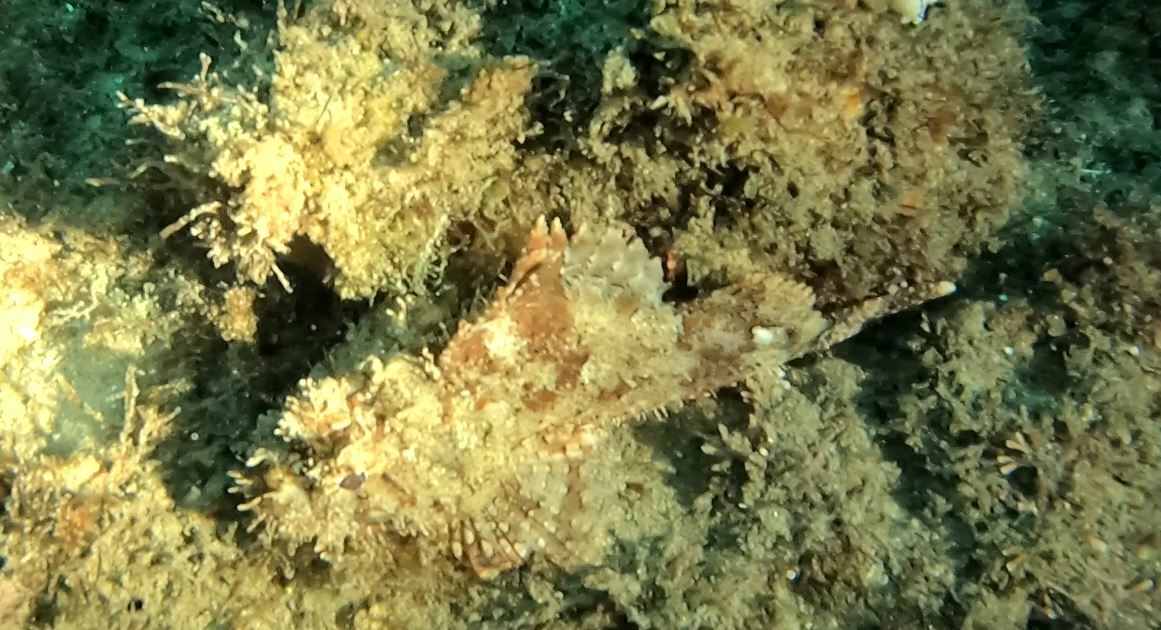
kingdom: Animalia
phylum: Chordata
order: Scorpaeniformes
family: Scorpaenidae
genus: Scorpaena
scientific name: Scorpaena jacksoniensis
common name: Eastern red scorpionfish
